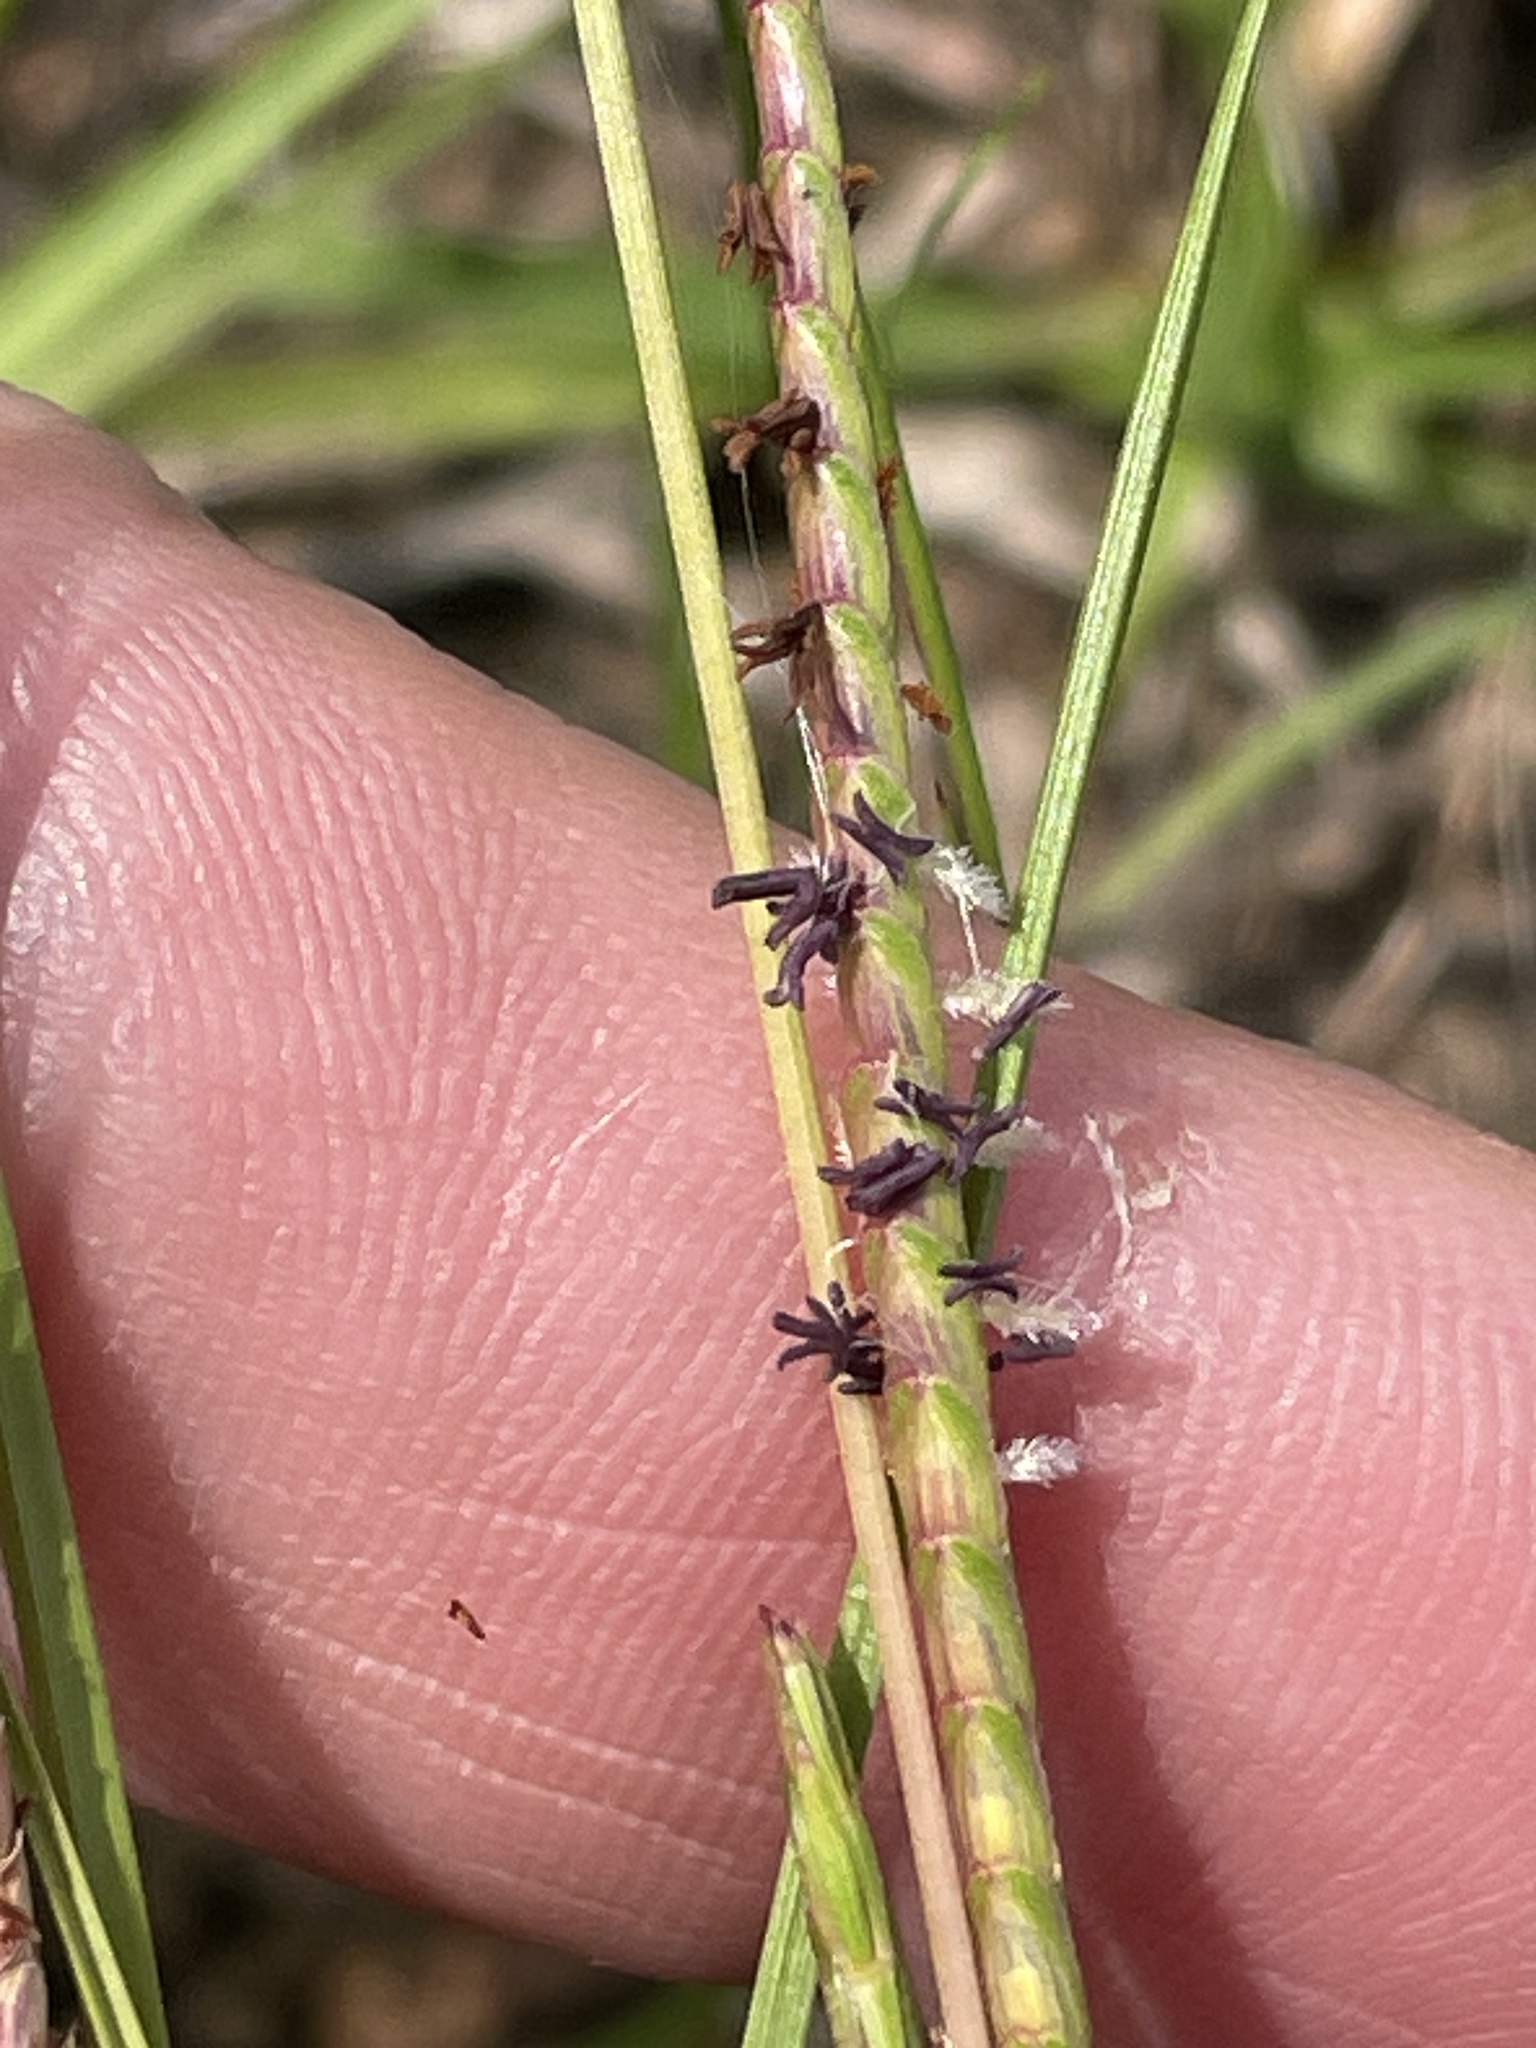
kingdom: Plantae
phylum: Tracheophyta
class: Liliopsida
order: Poales
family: Poaceae
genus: Eremochloa
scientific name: Eremochloa ophiuroides
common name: Centipede grass
